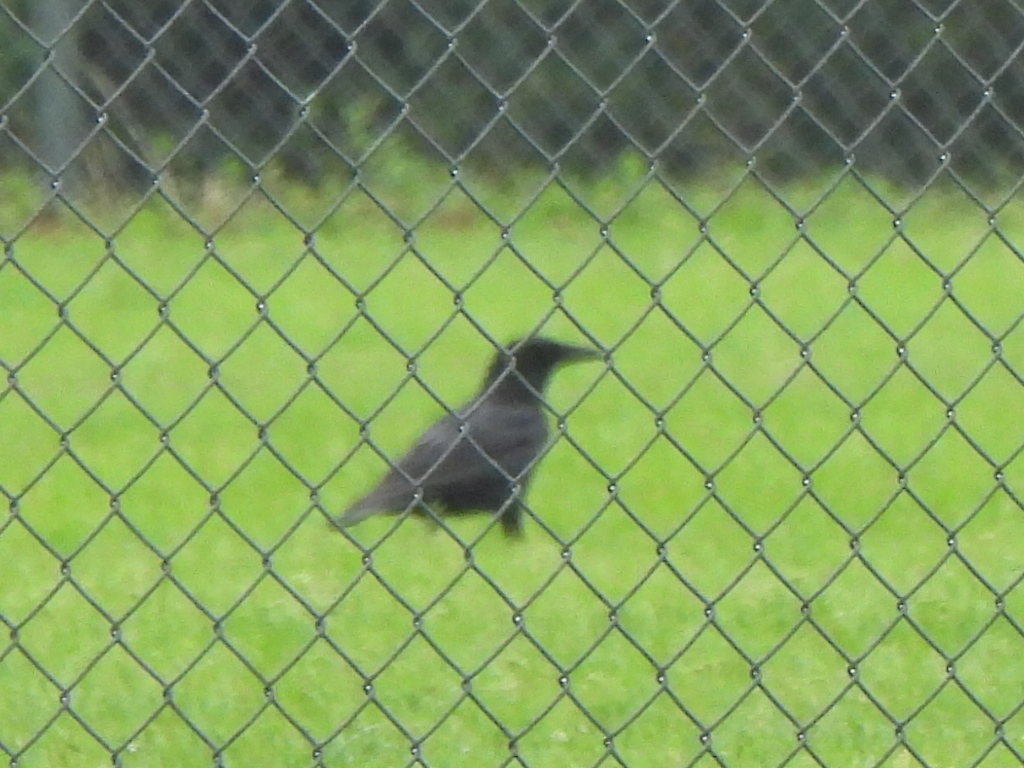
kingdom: Animalia
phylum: Chordata
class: Aves
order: Passeriformes
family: Corvidae
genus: Corvus
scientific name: Corvus brachyrhynchos
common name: American crow
